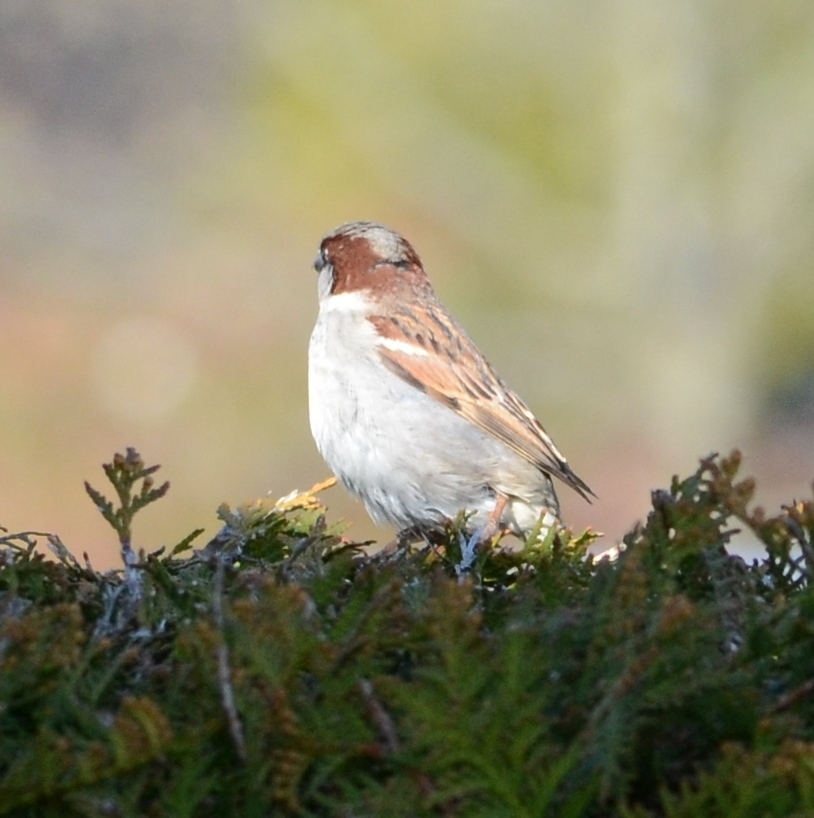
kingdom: Animalia
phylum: Chordata
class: Aves
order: Passeriformes
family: Passeridae
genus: Passer
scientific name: Passer domesticus
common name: House sparrow
